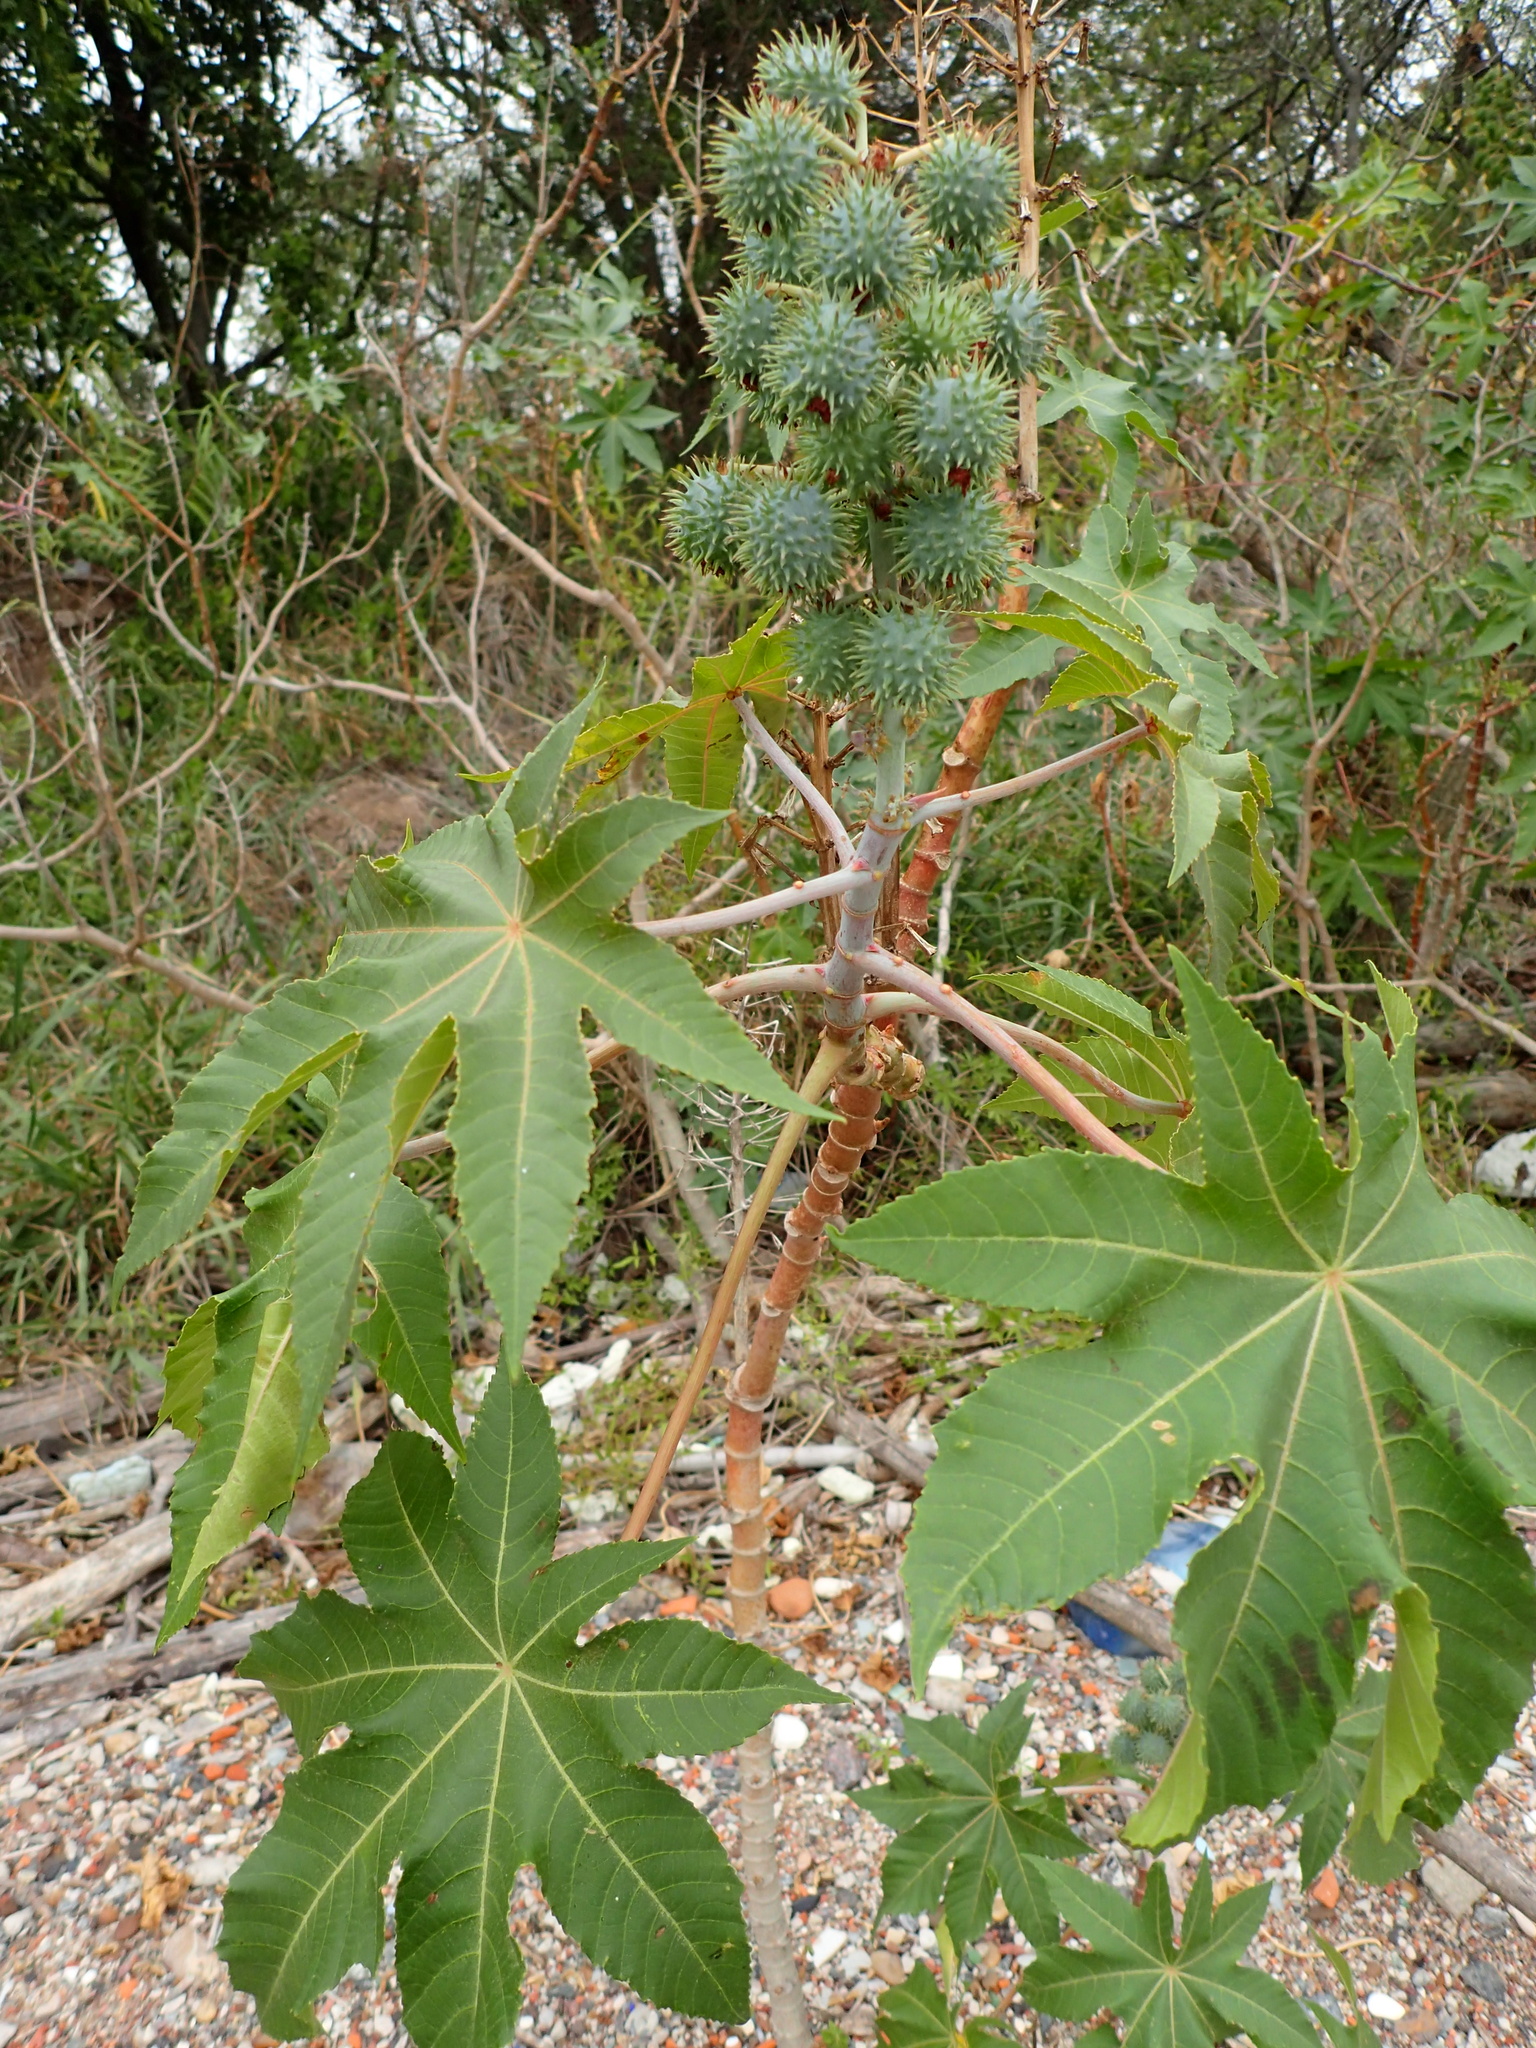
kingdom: Plantae
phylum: Tracheophyta
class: Magnoliopsida
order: Malpighiales
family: Euphorbiaceae
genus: Ricinus
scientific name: Ricinus communis
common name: Castor-oil-plant
